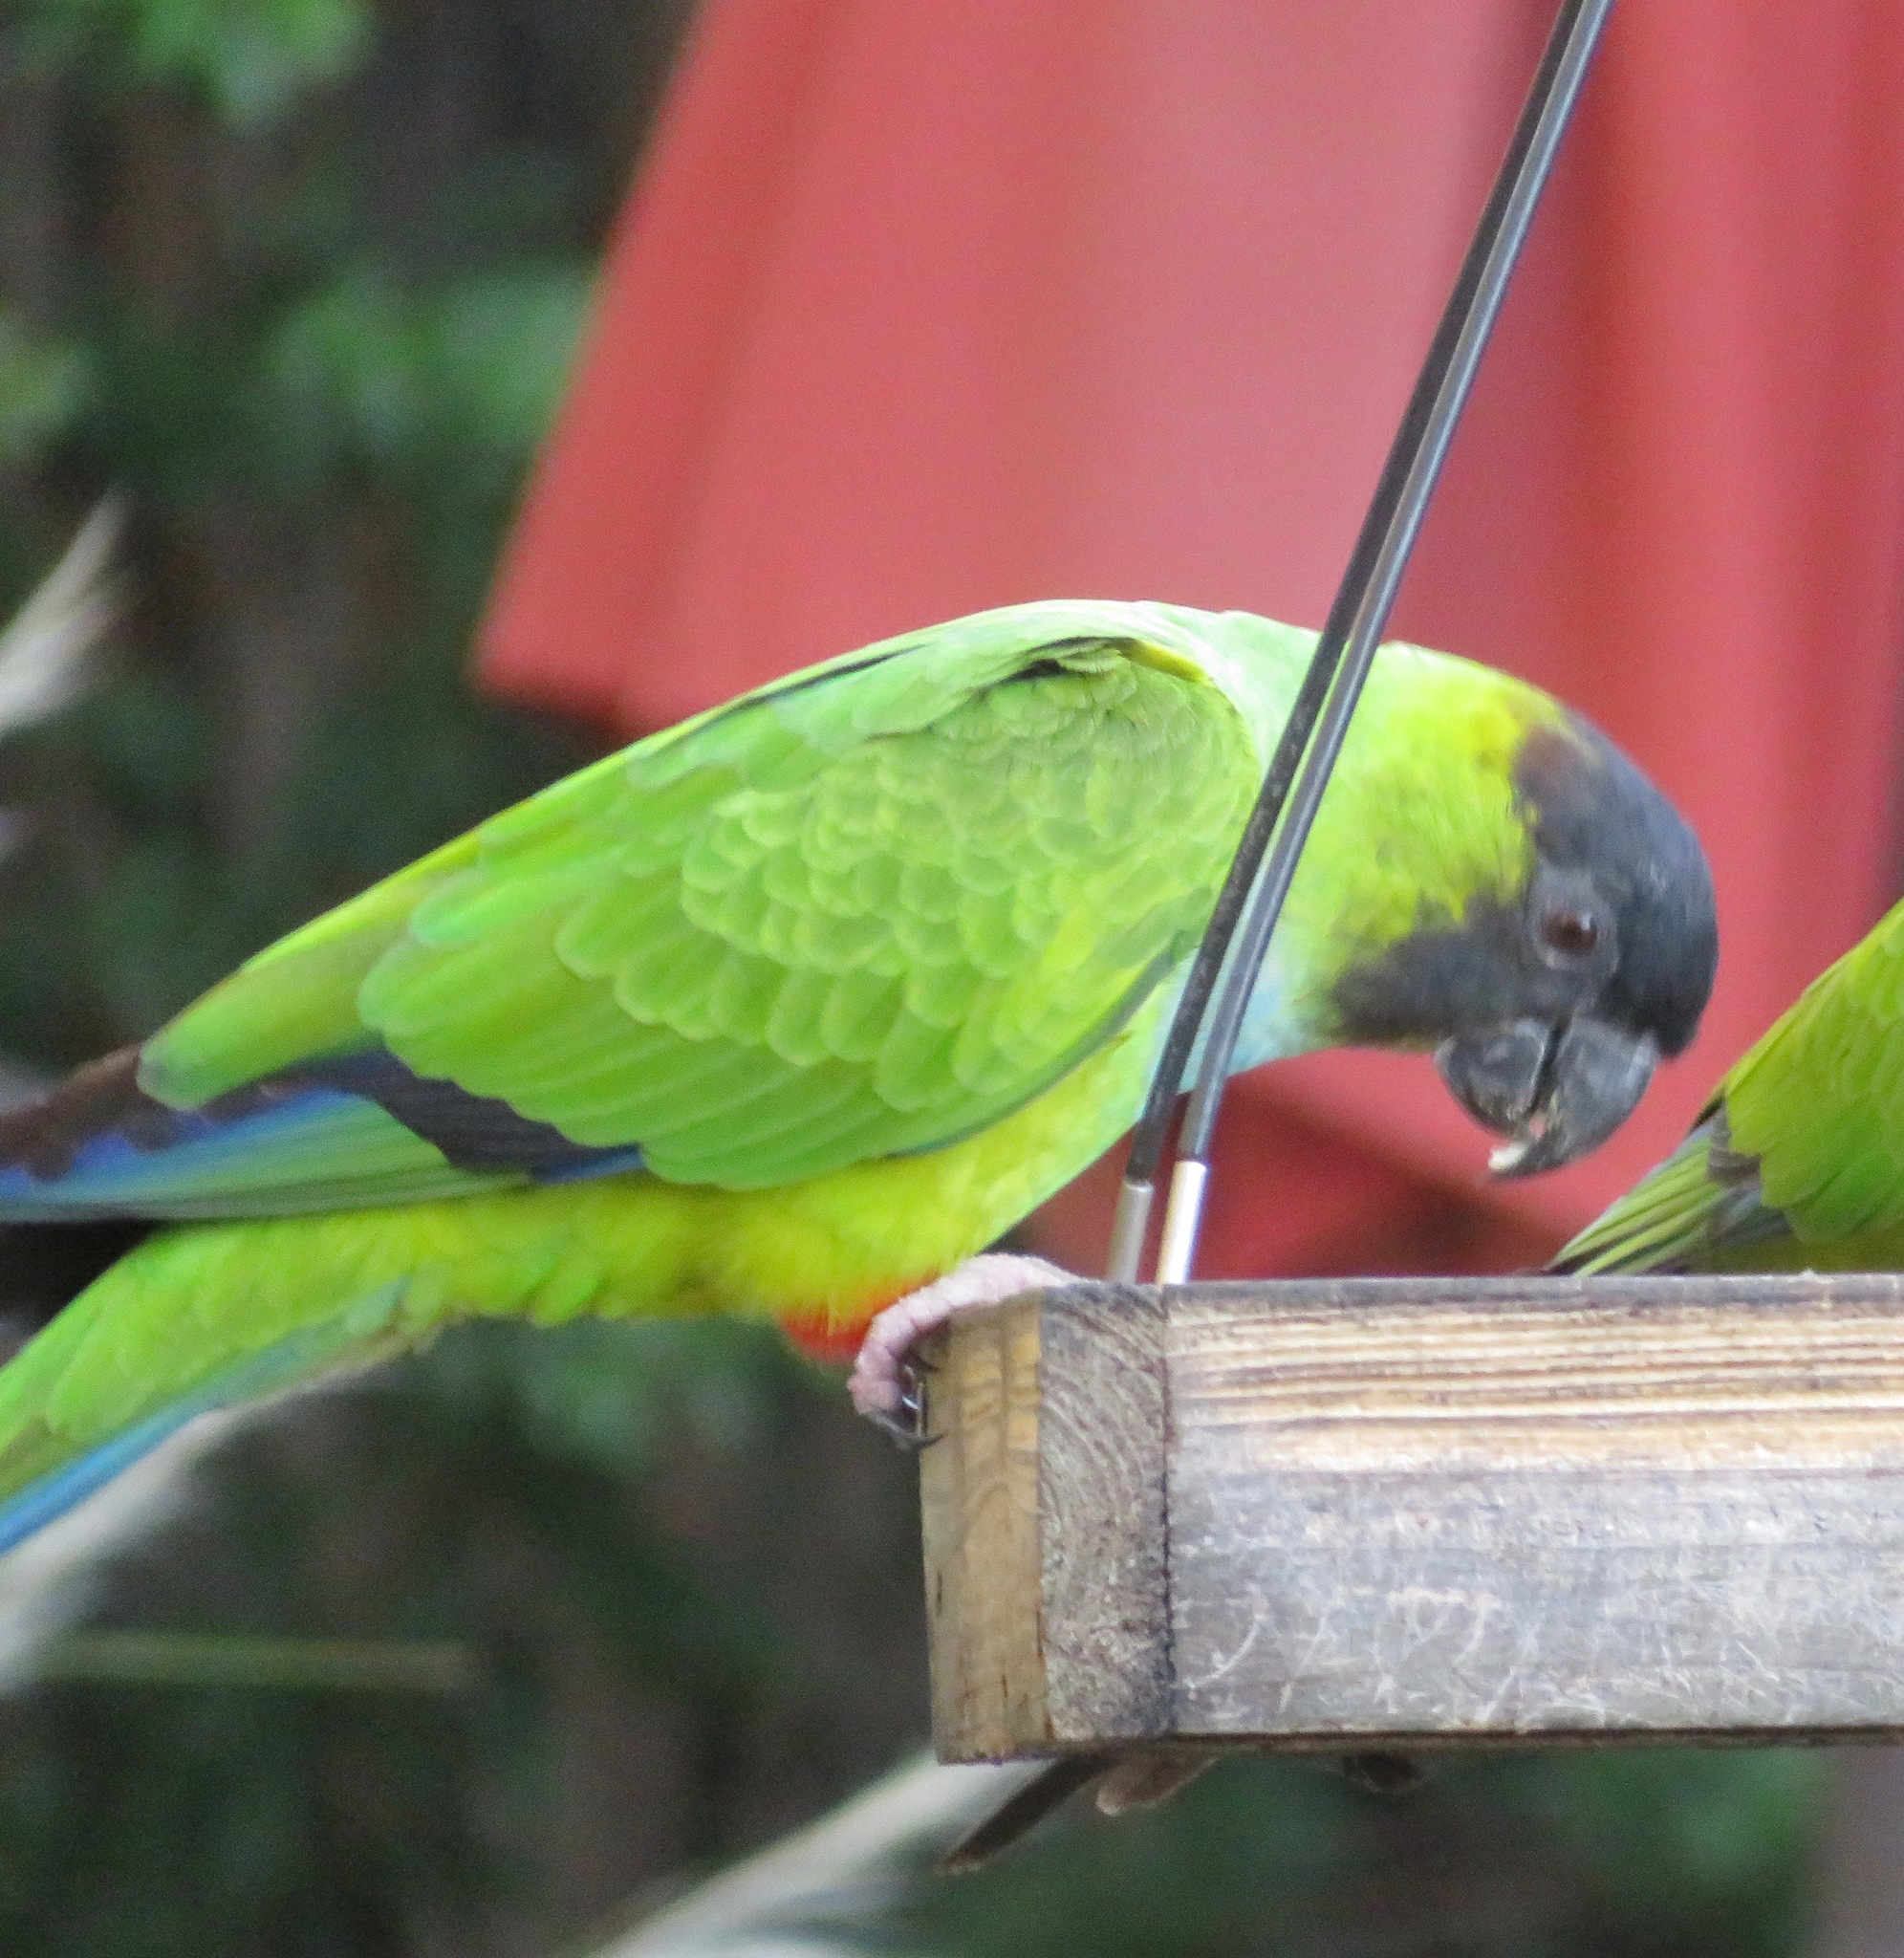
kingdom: Animalia
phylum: Chordata
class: Aves
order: Psittaciformes
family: Psittacidae
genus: Nandayus
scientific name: Nandayus nenday
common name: Nanday parakeet
